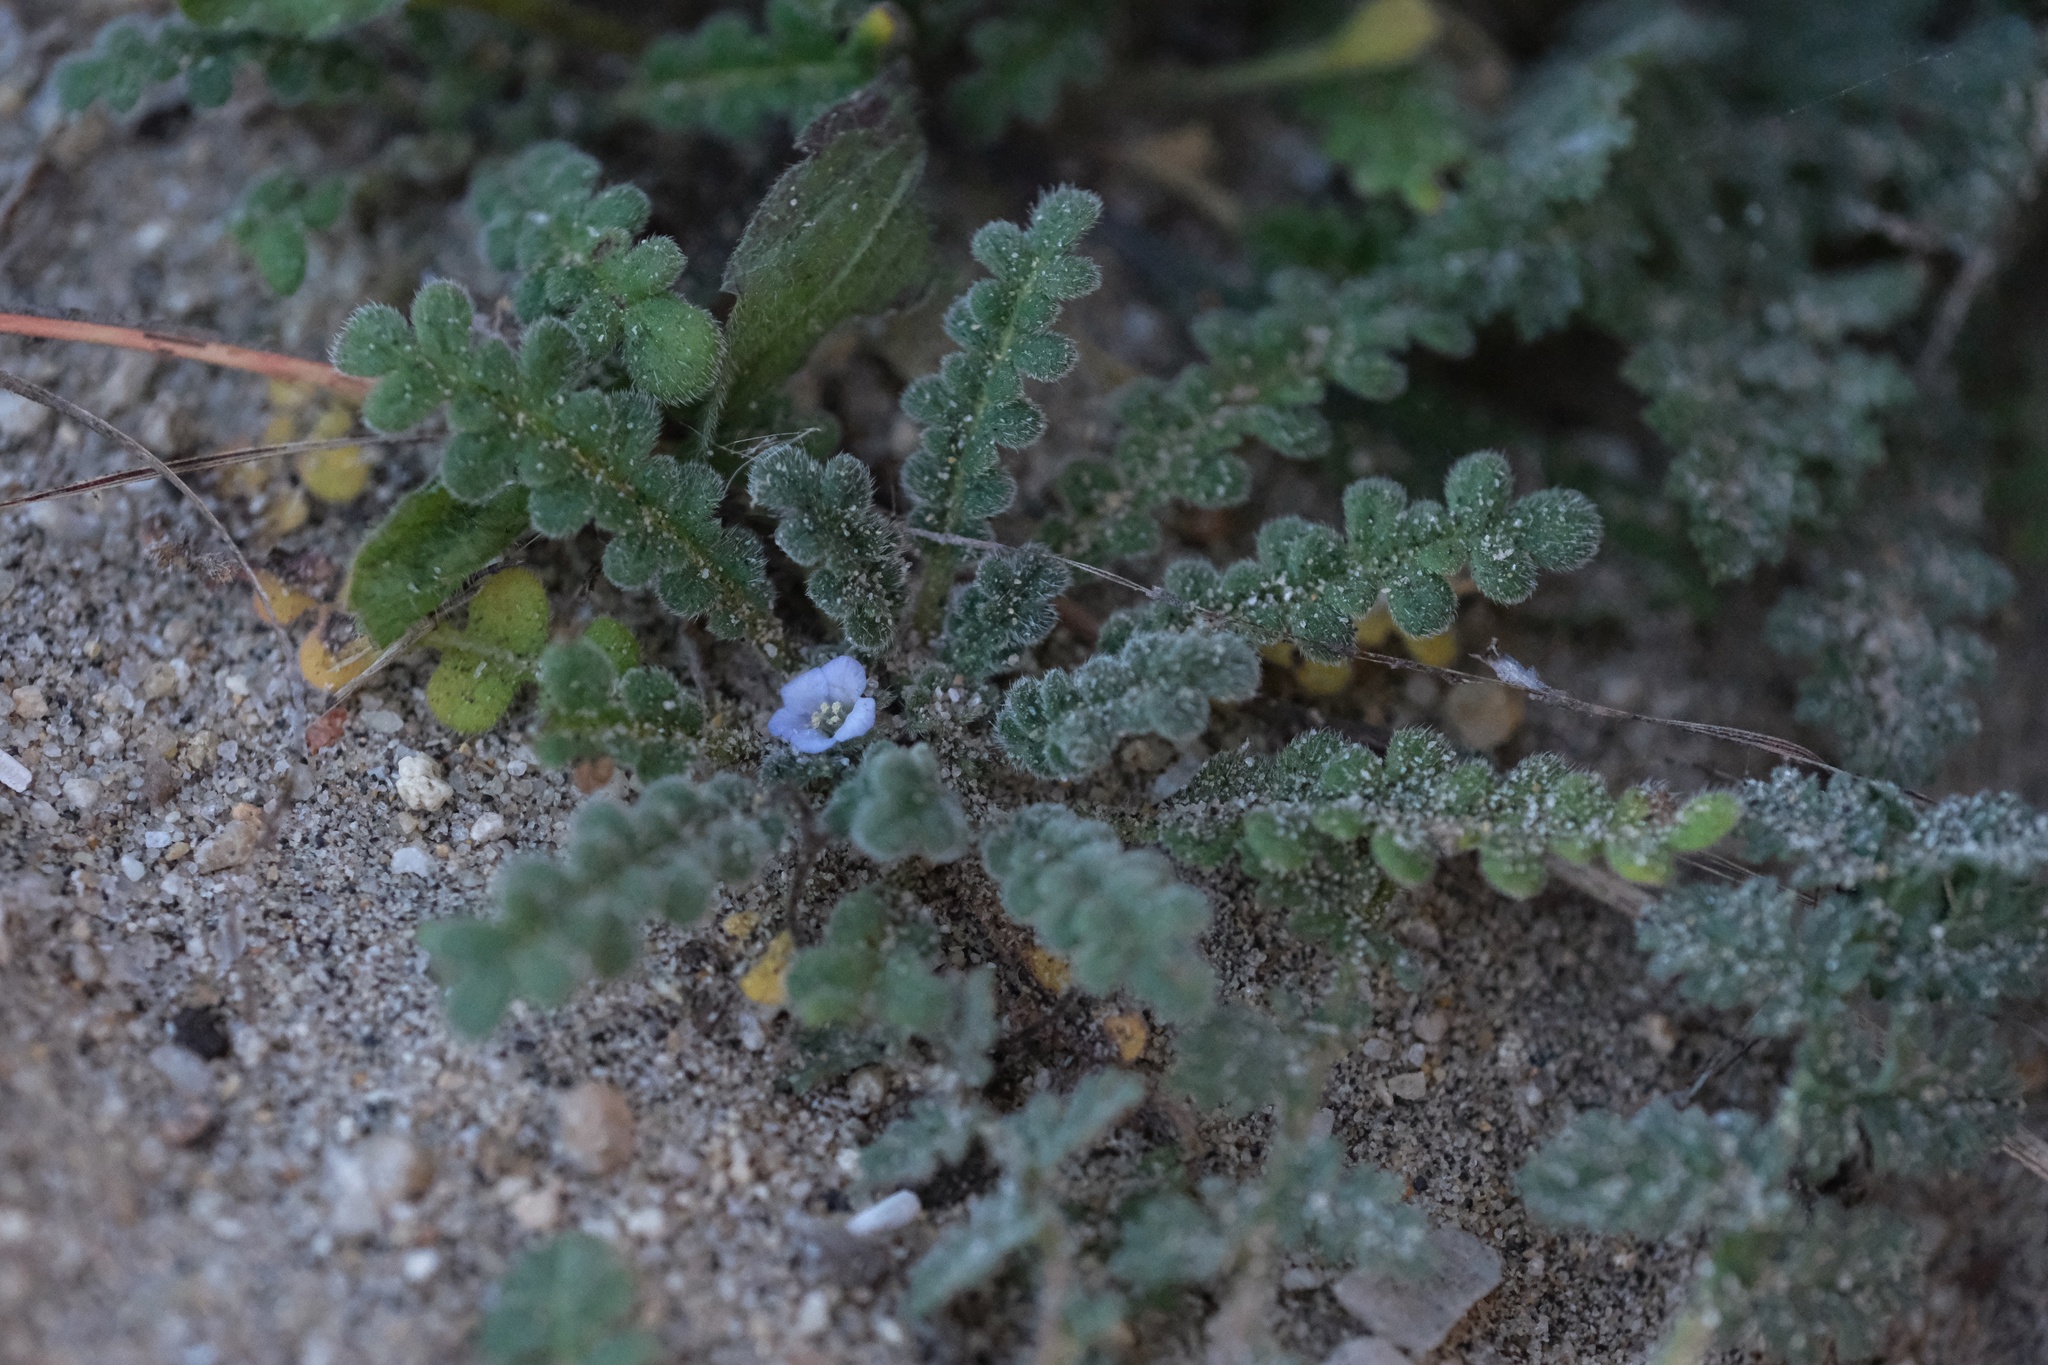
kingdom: Plantae
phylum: Tracheophyta
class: Magnoliopsida
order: Boraginales
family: Hydrophyllaceae
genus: Phacelia
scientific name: Phacelia stellaris
